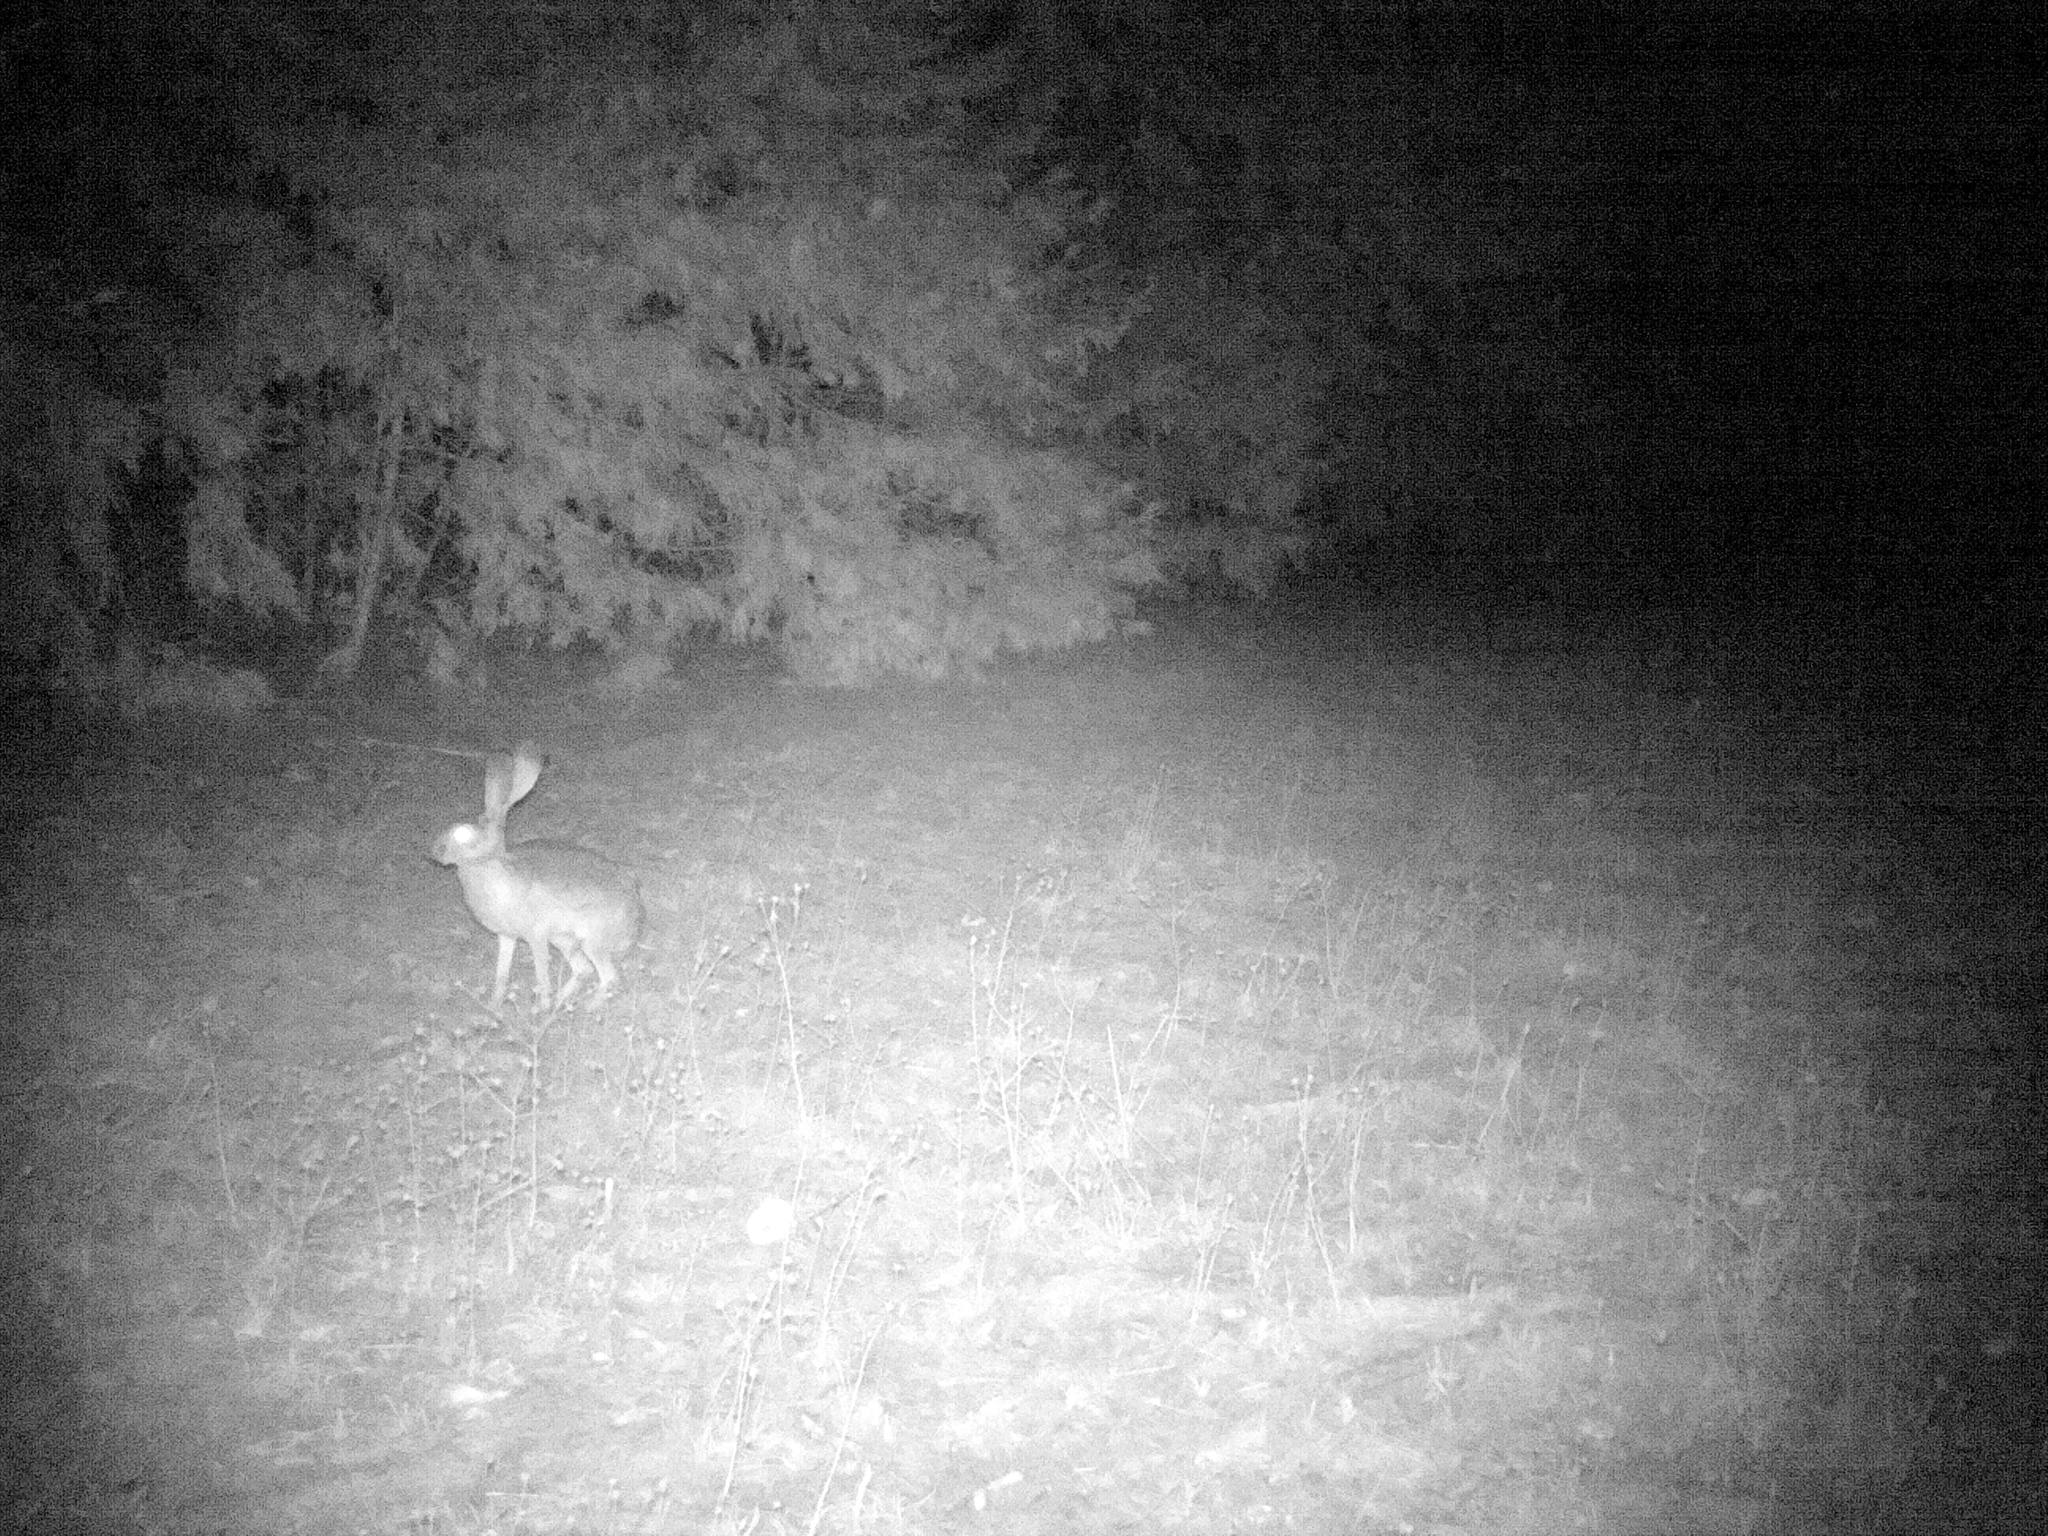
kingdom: Animalia
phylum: Chordata
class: Mammalia
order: Lagomorpha
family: Leporidae
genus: Lepus
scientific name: Lepus californicus
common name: Black-tailed jackrabbit
